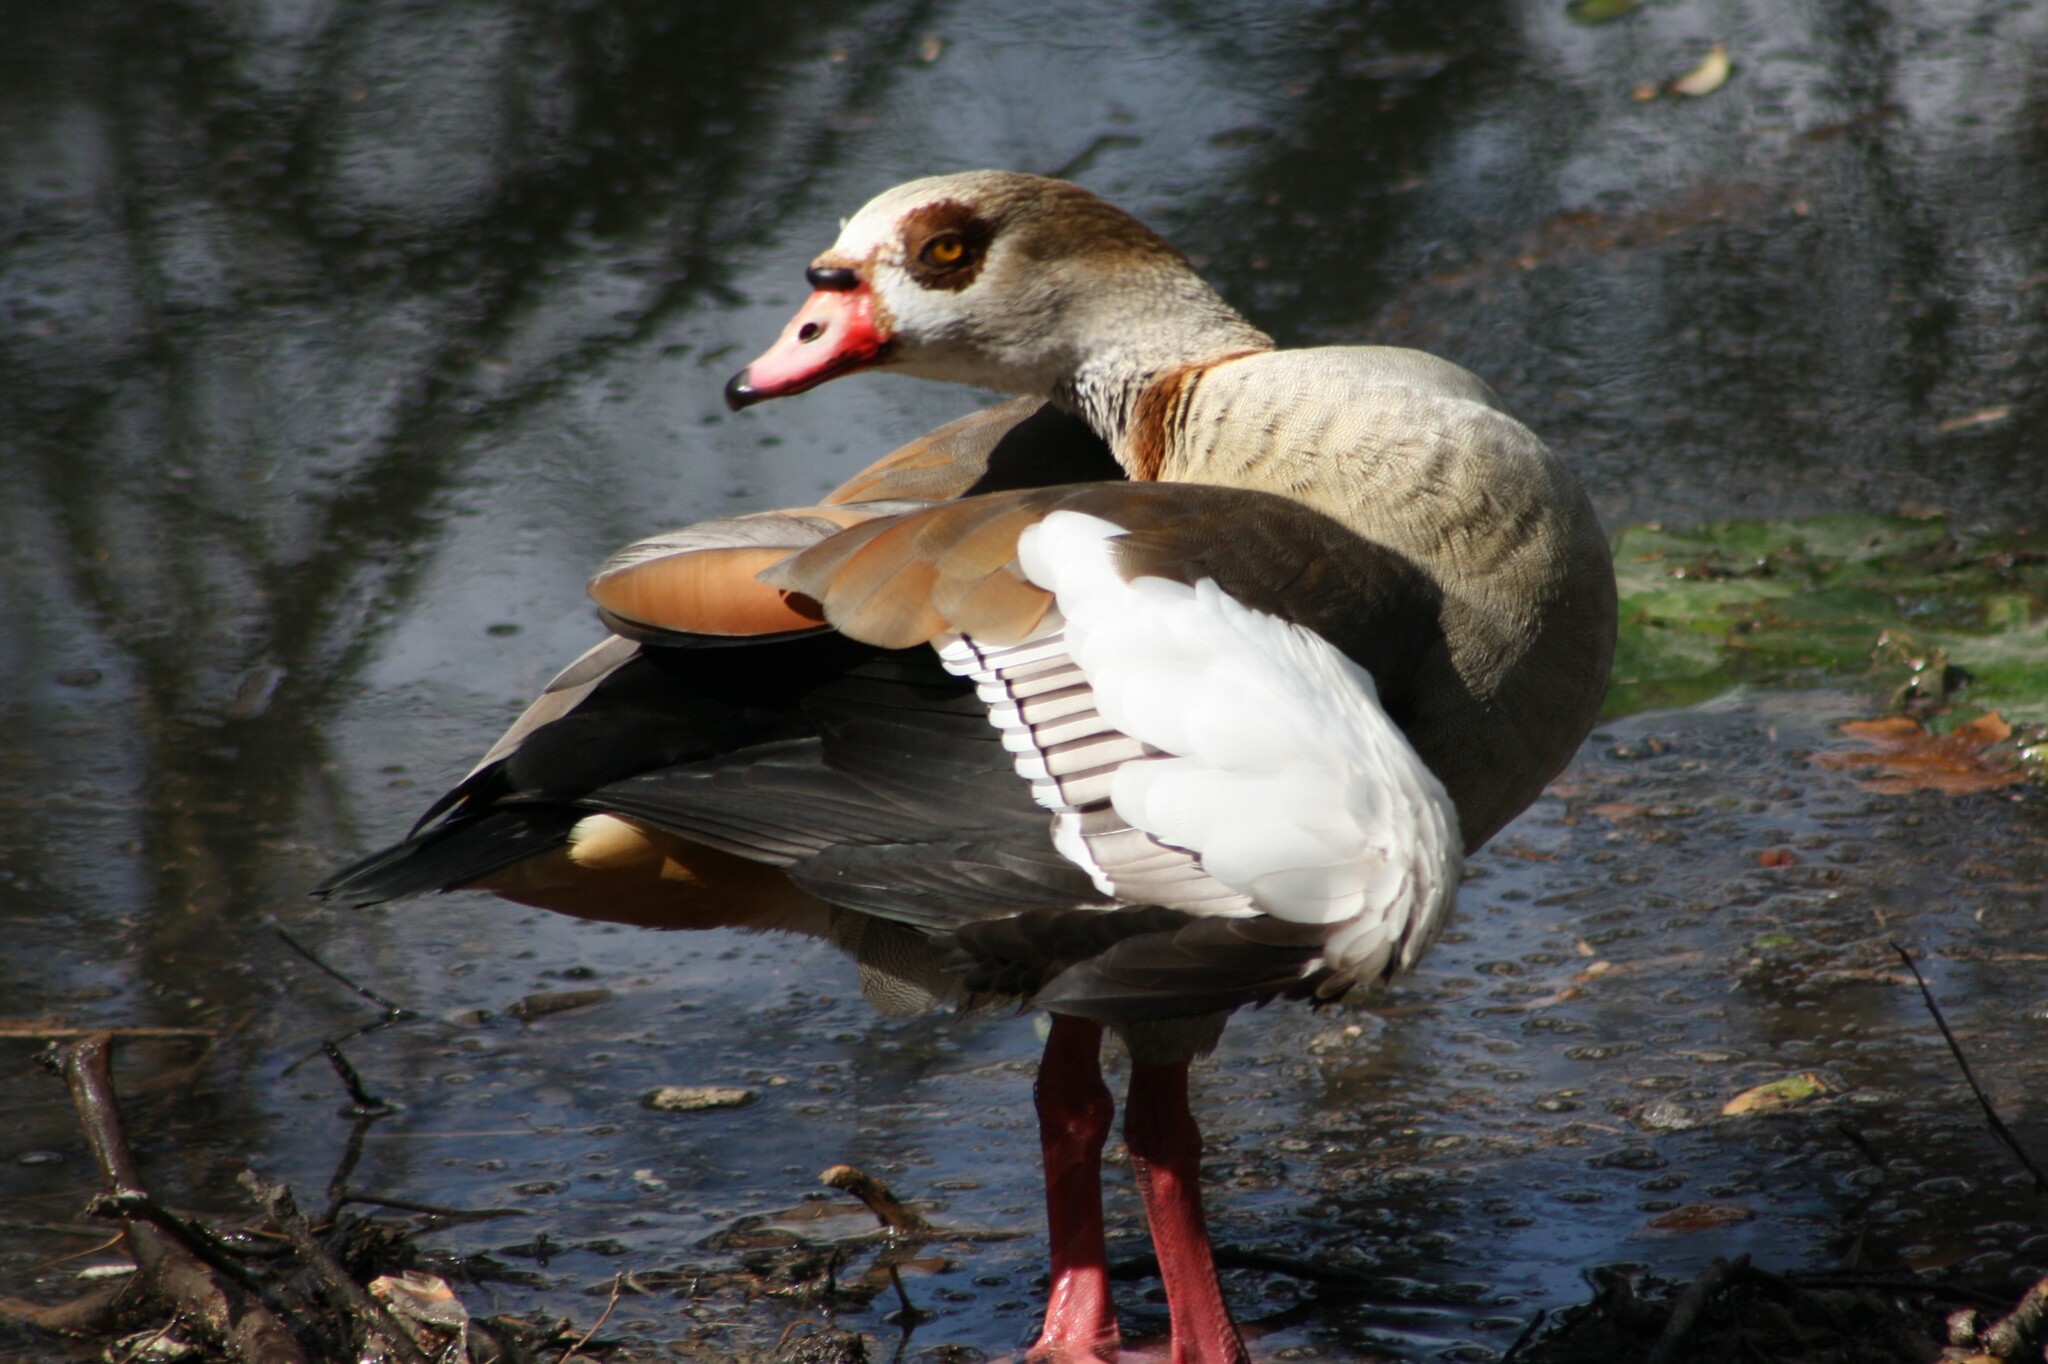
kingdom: Animalia
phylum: Chordata
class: Aves
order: Anseriformes
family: Anatidae
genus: Alopochen
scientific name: Alopochen aegyptiaca
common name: Egyptian goose
